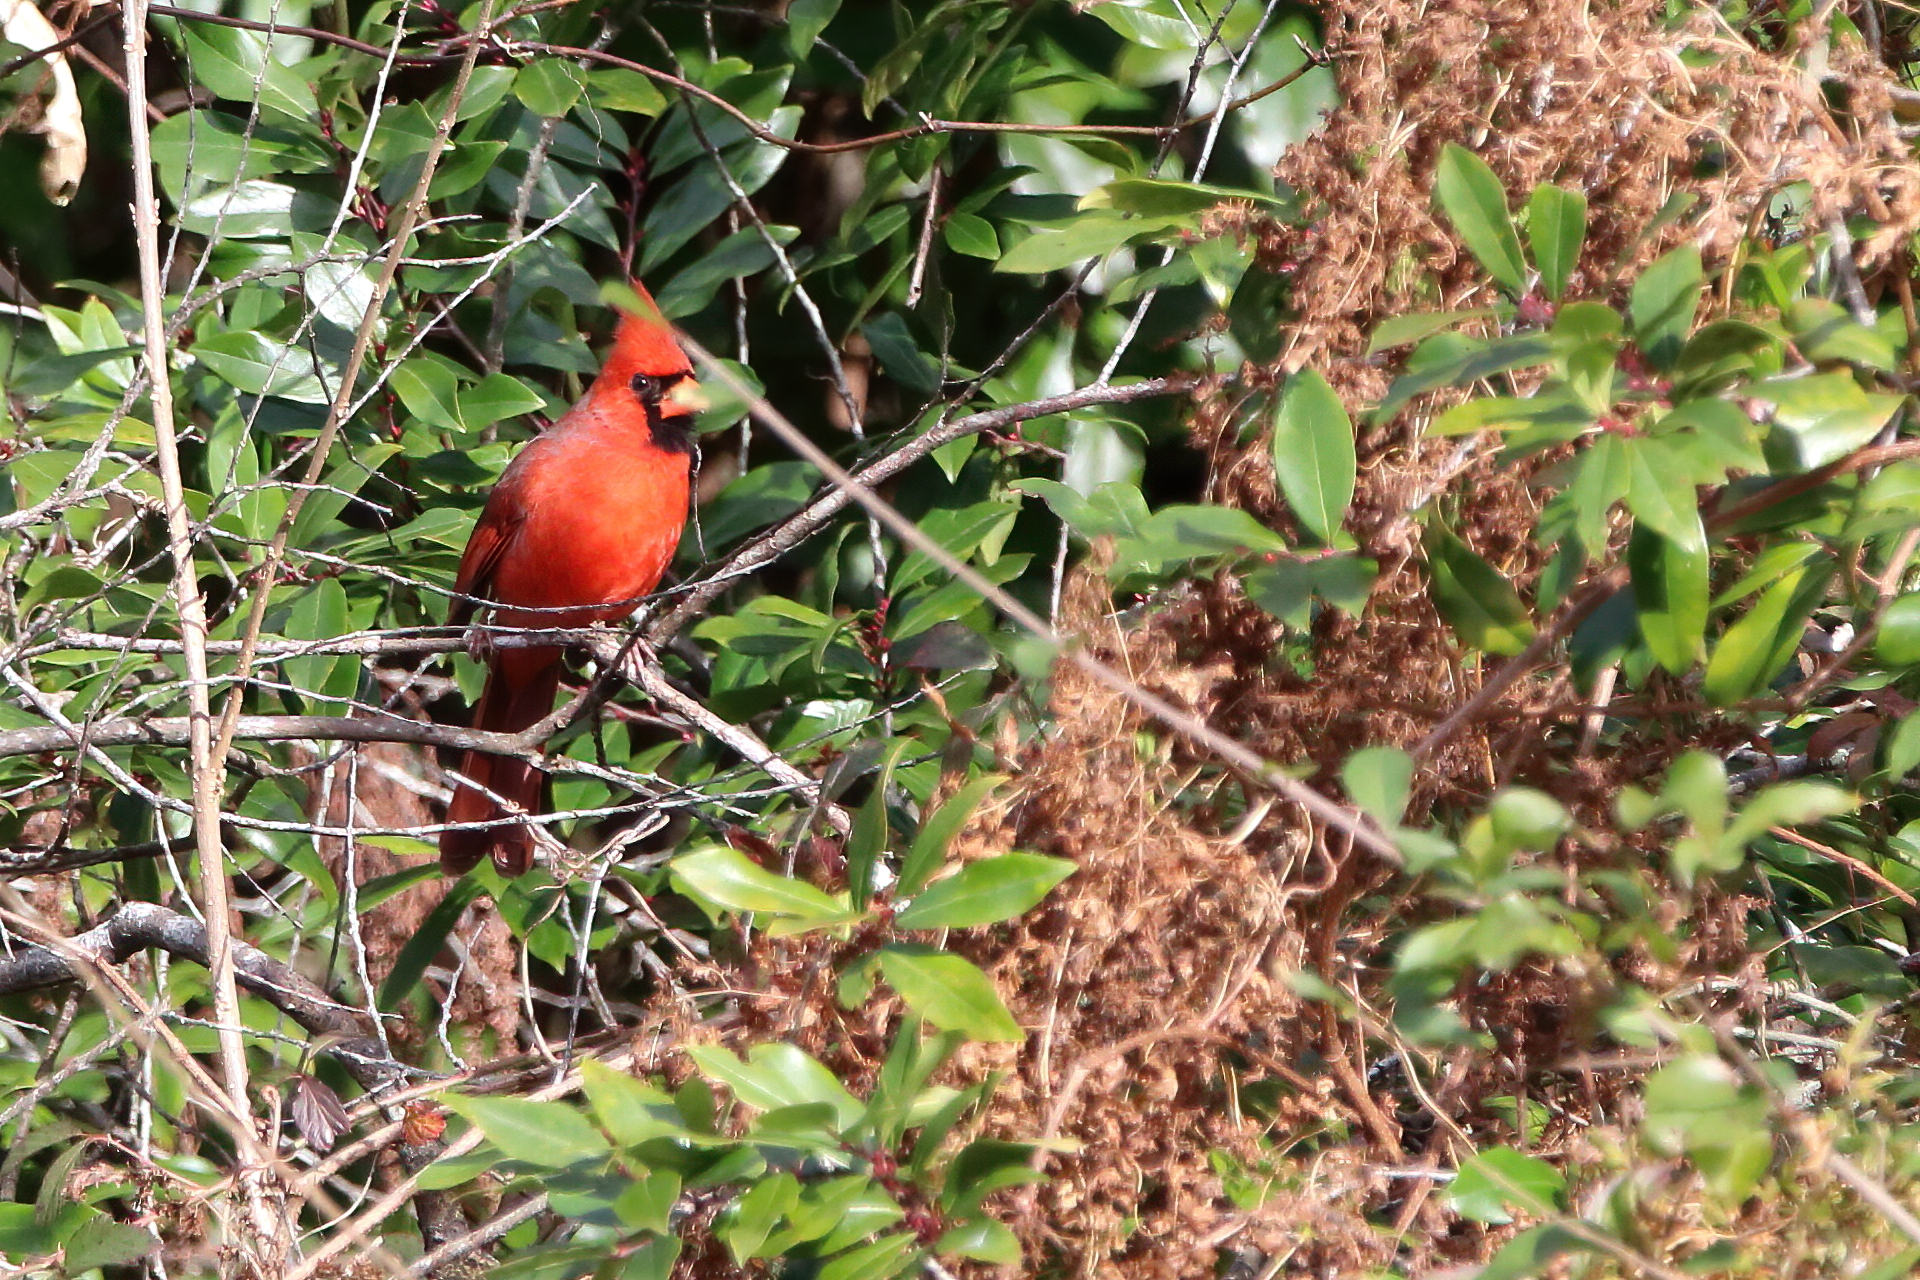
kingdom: Animalia
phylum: Chordata
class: Aves
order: Passeriformes
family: Cardinalidae
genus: Cardinalis
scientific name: Cardinalis cardinalis
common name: Northern cardinal
